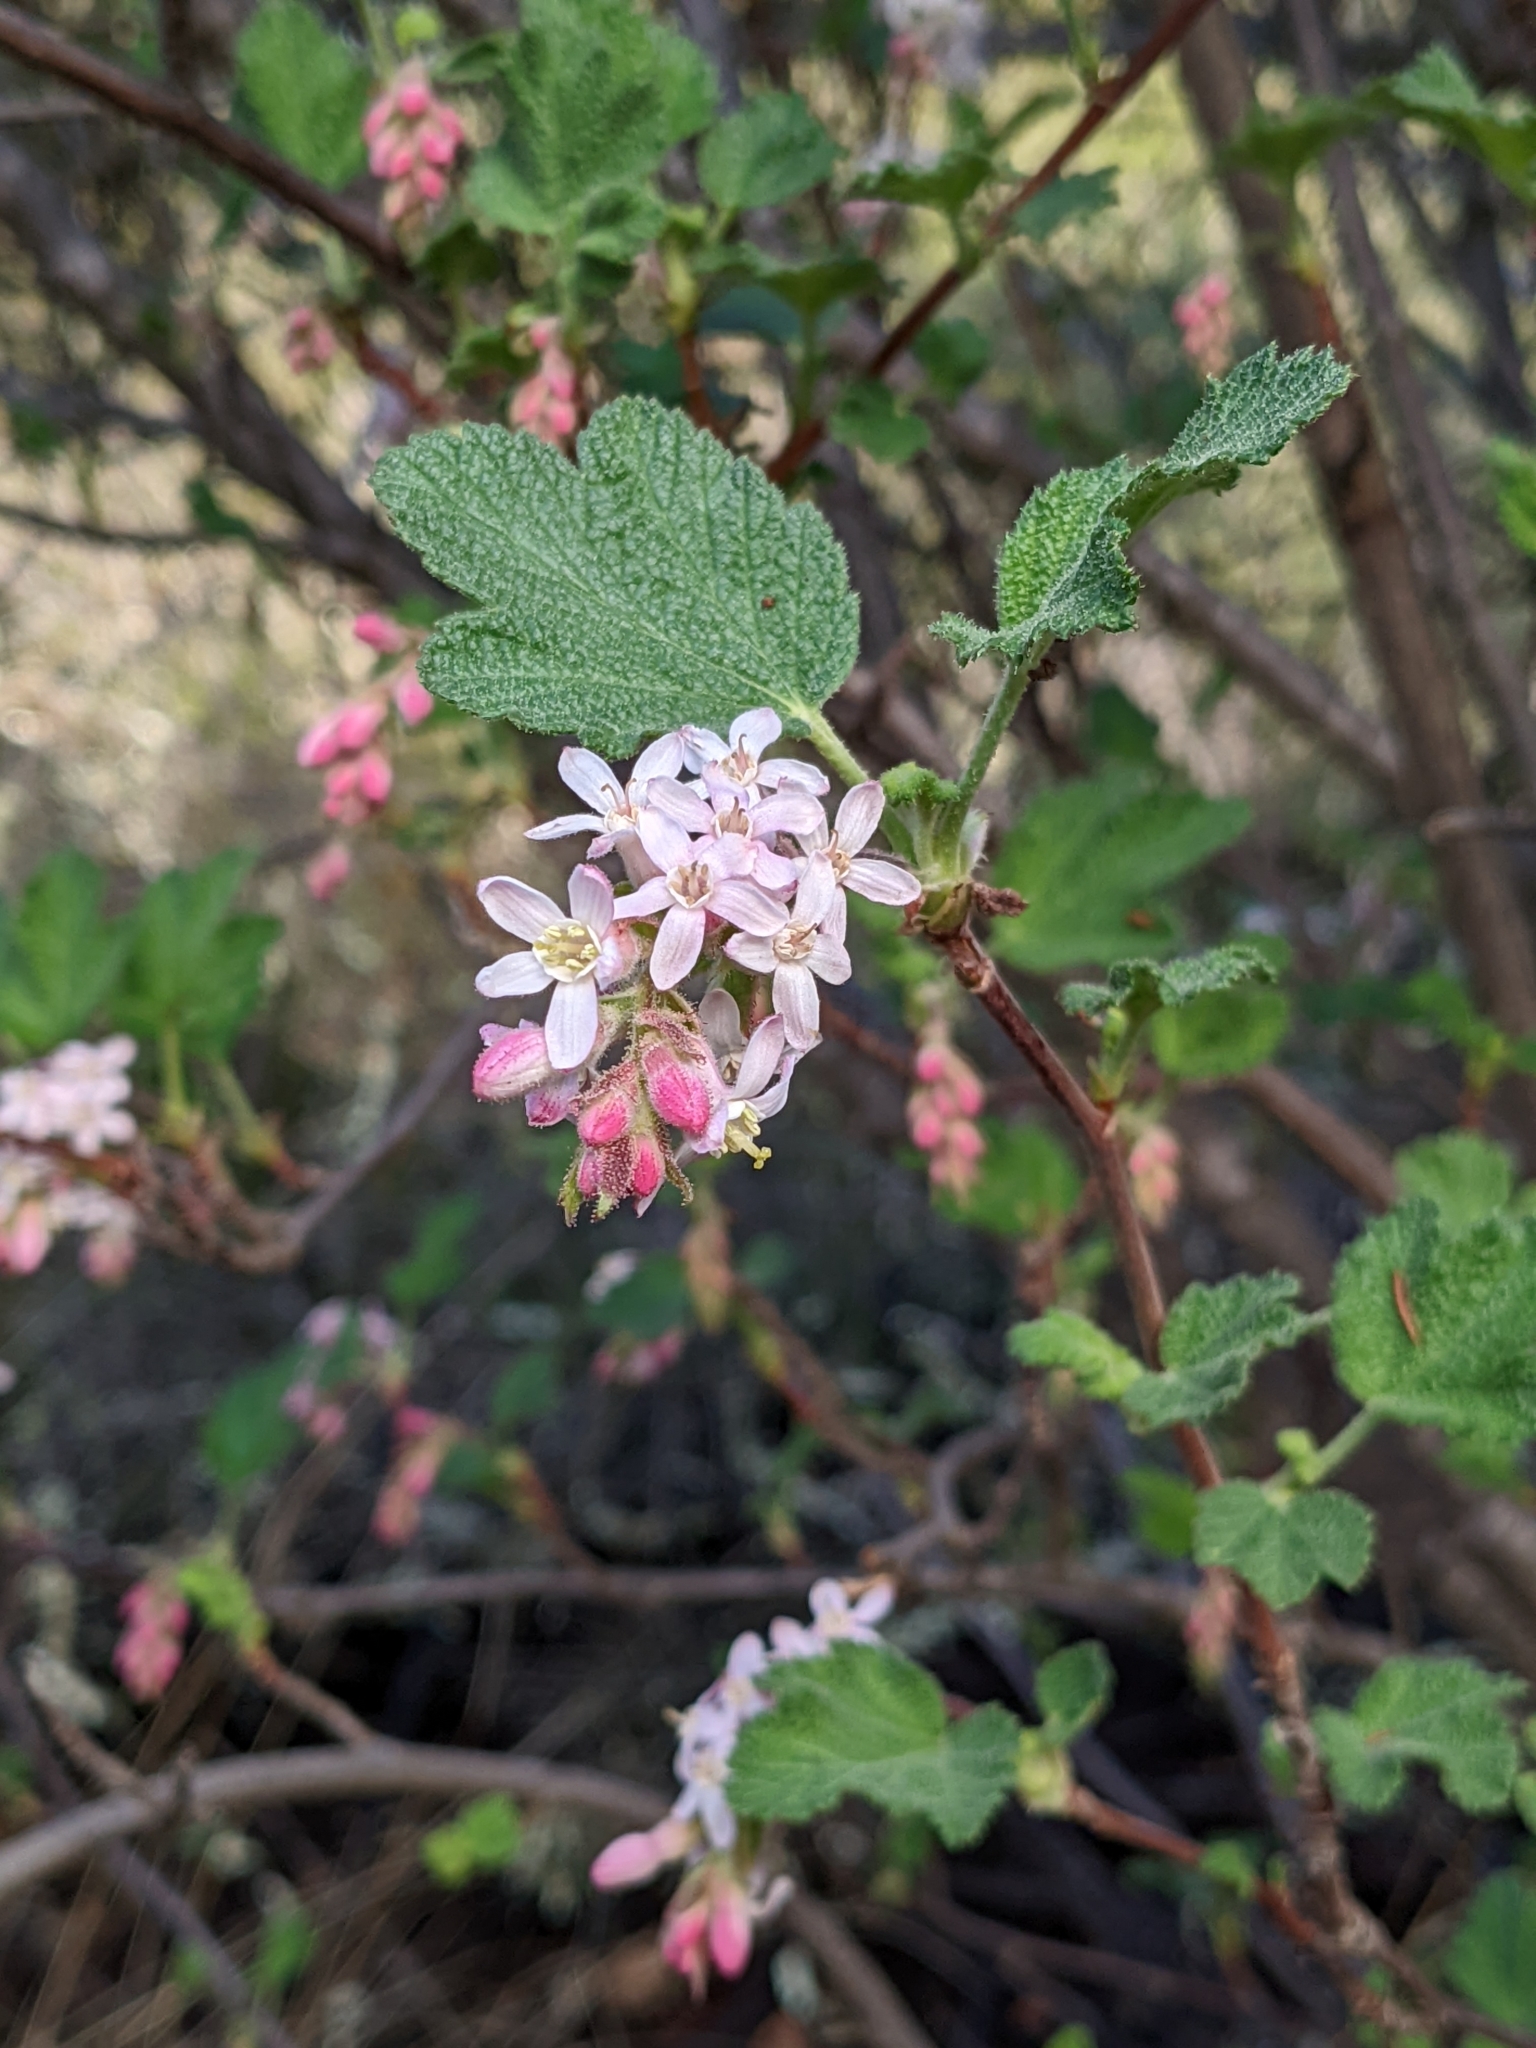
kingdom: Plantae
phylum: Tracheophyta
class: Magnoliopsida
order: Saxifragales
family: Grossulariaceae
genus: Ribes
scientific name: Ribes malvaceum
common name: Chaparral currant
